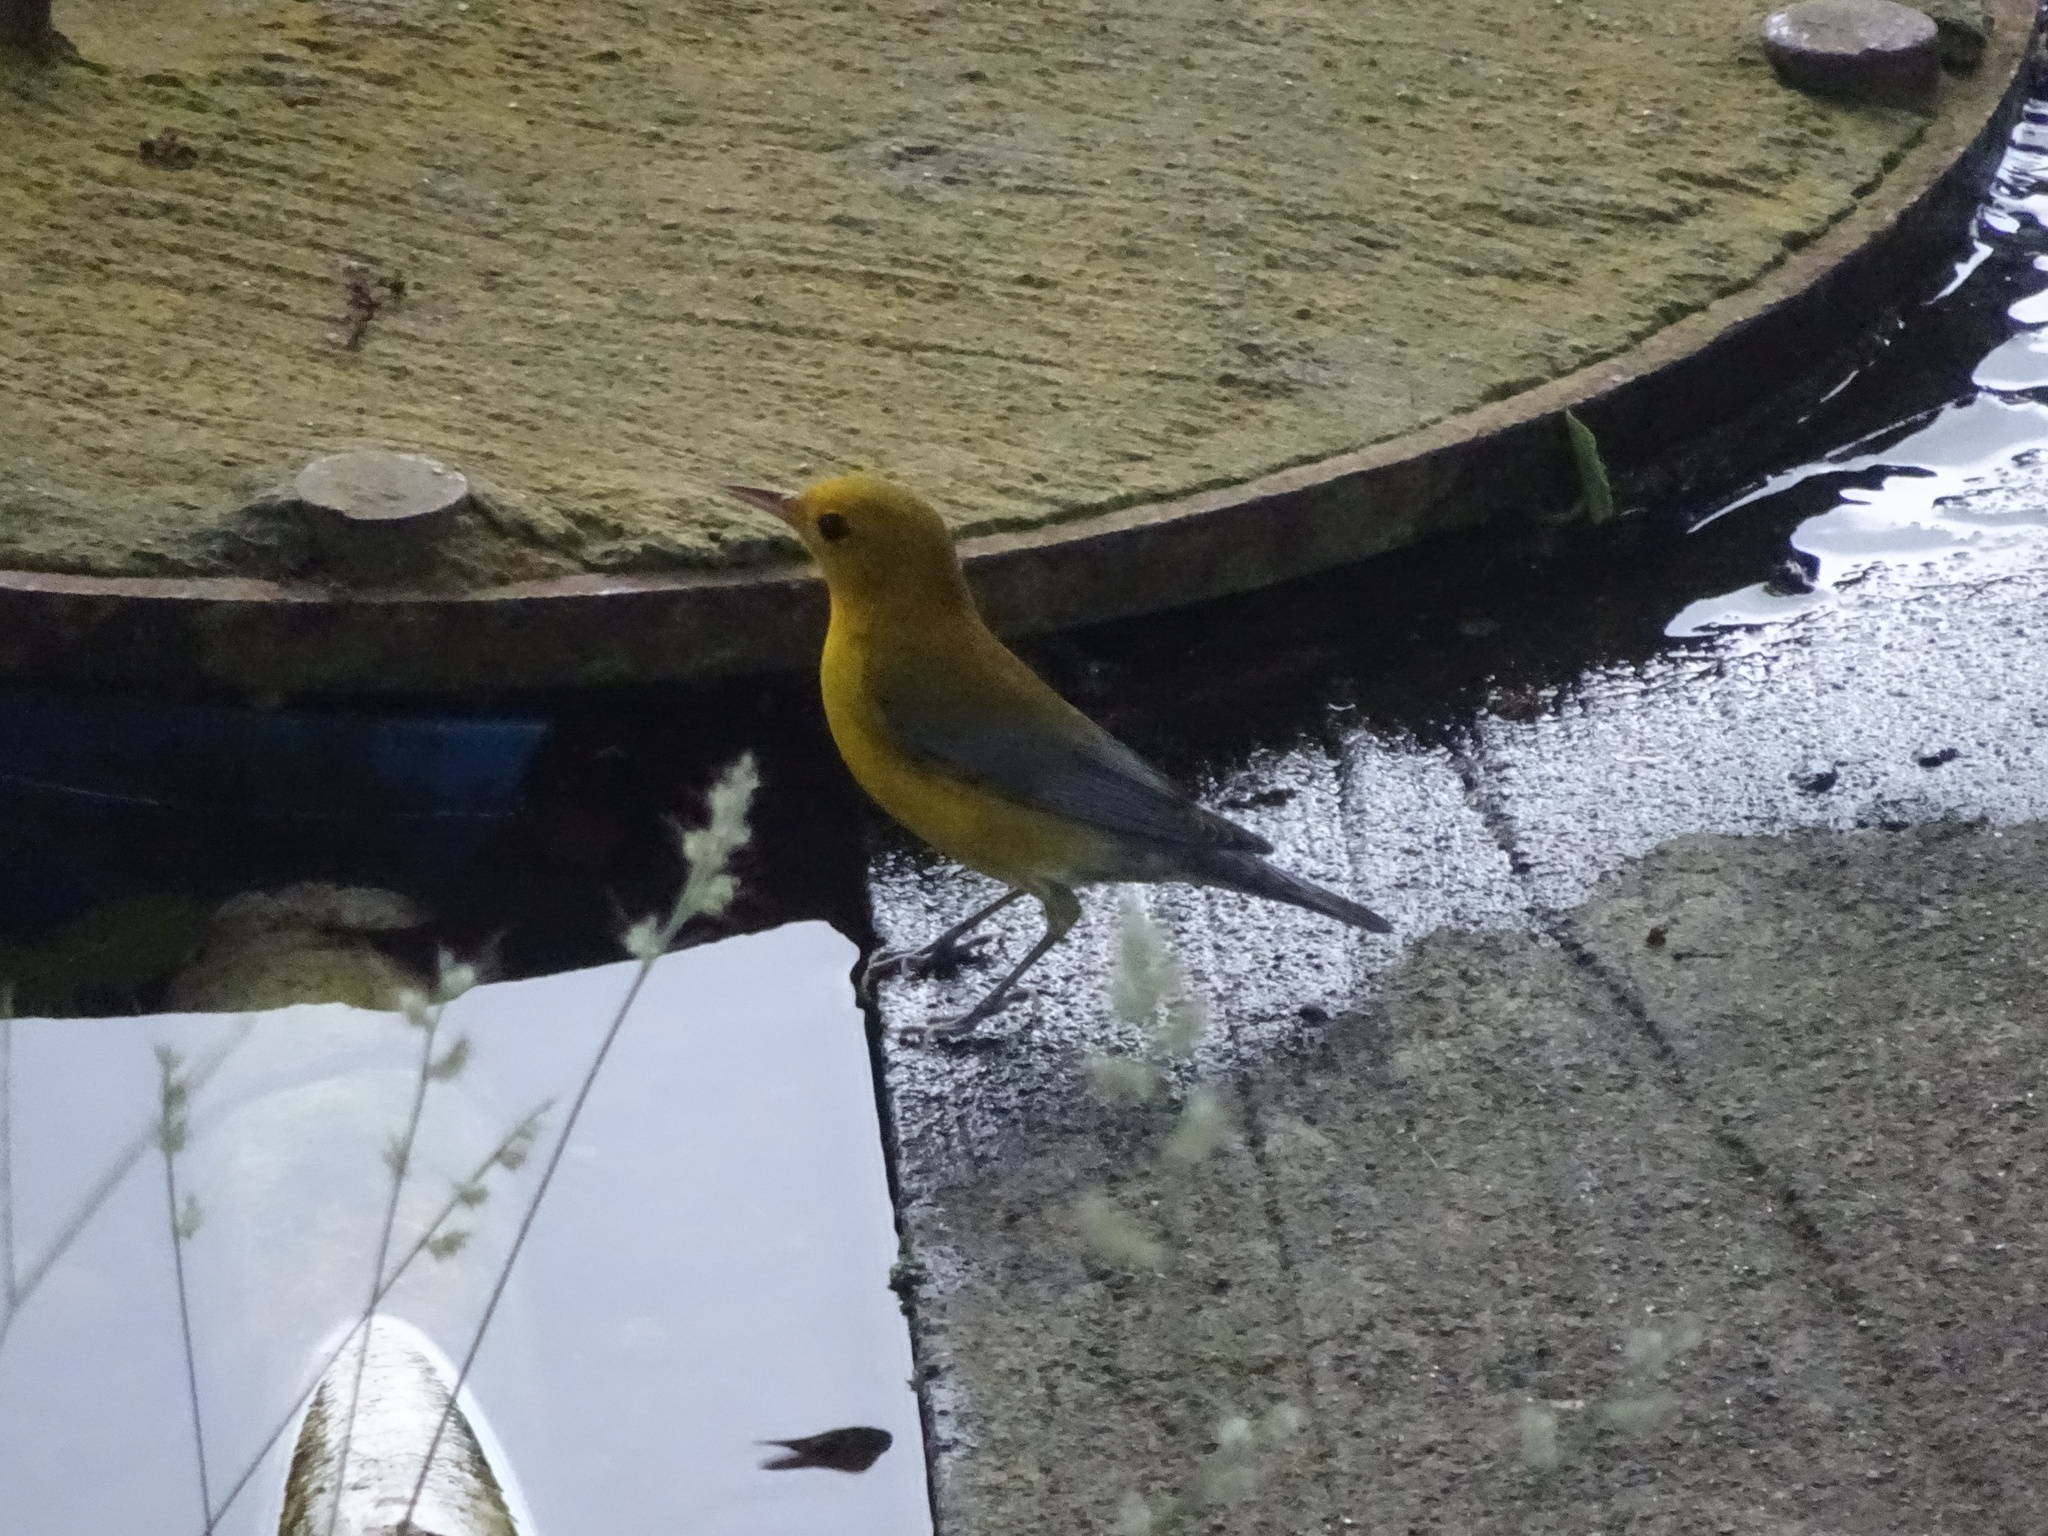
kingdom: Animalia
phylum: Chordata
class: Aves
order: Passeriformes
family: Parulidae
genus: Protonotaria
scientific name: Protonotaria citrea
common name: Prothonotary warbler
